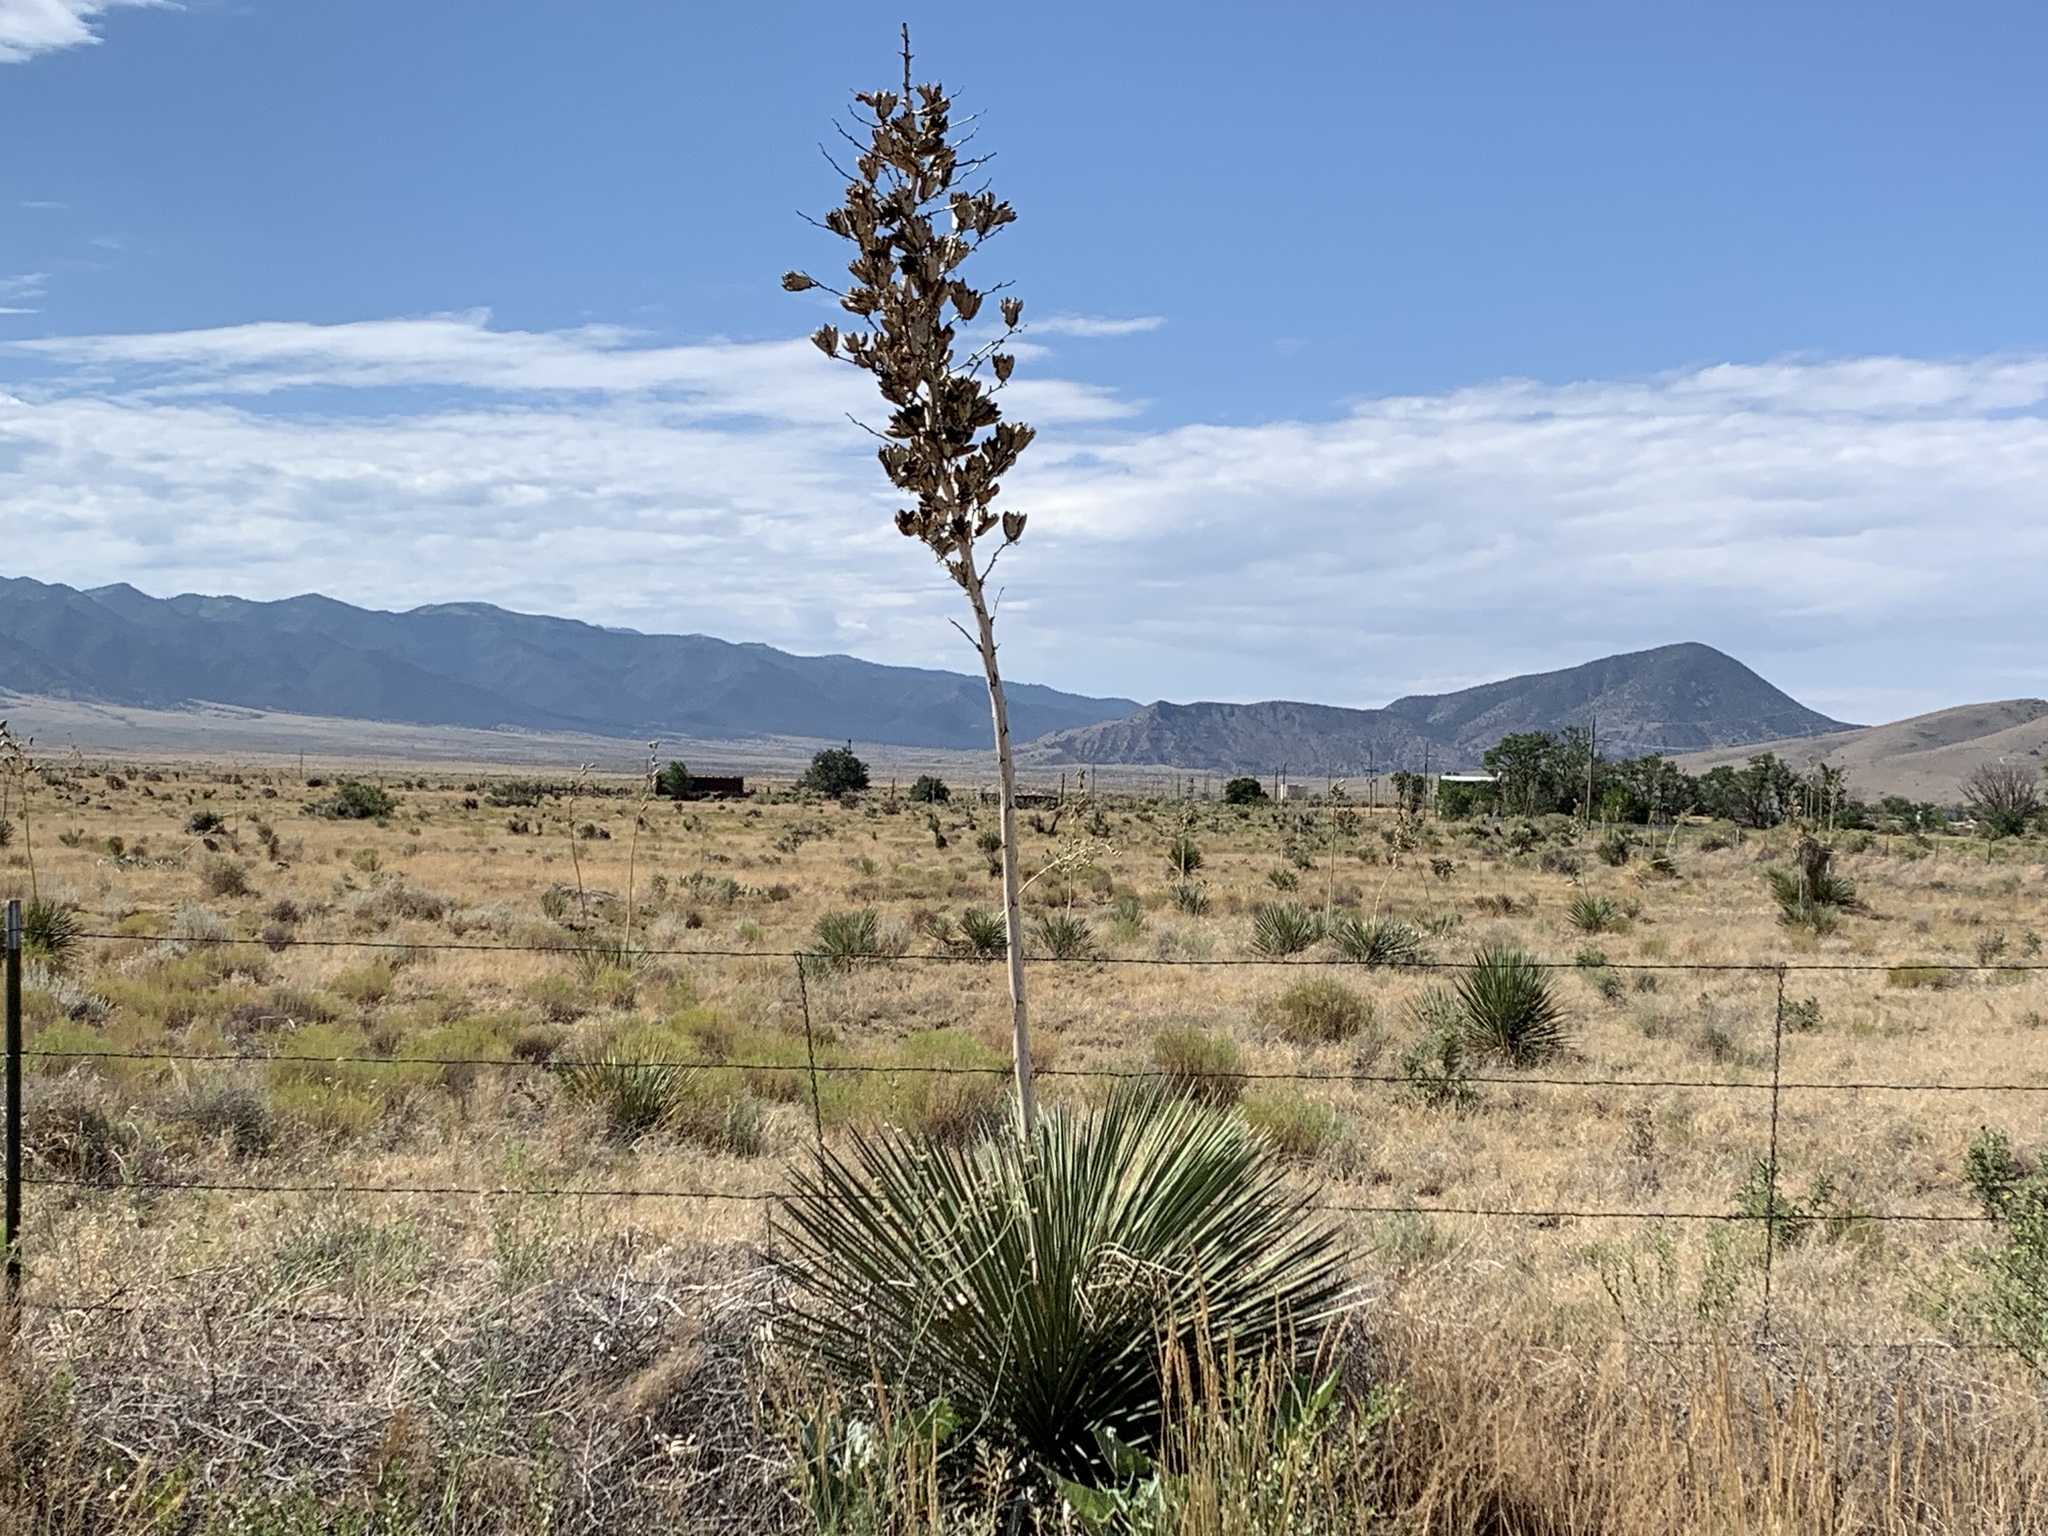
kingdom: Plantae
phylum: Tracheophyta
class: Liliopsida
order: Asparagales
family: Asparagaceae
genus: Yucca
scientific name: Yucca elata
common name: Palmella
